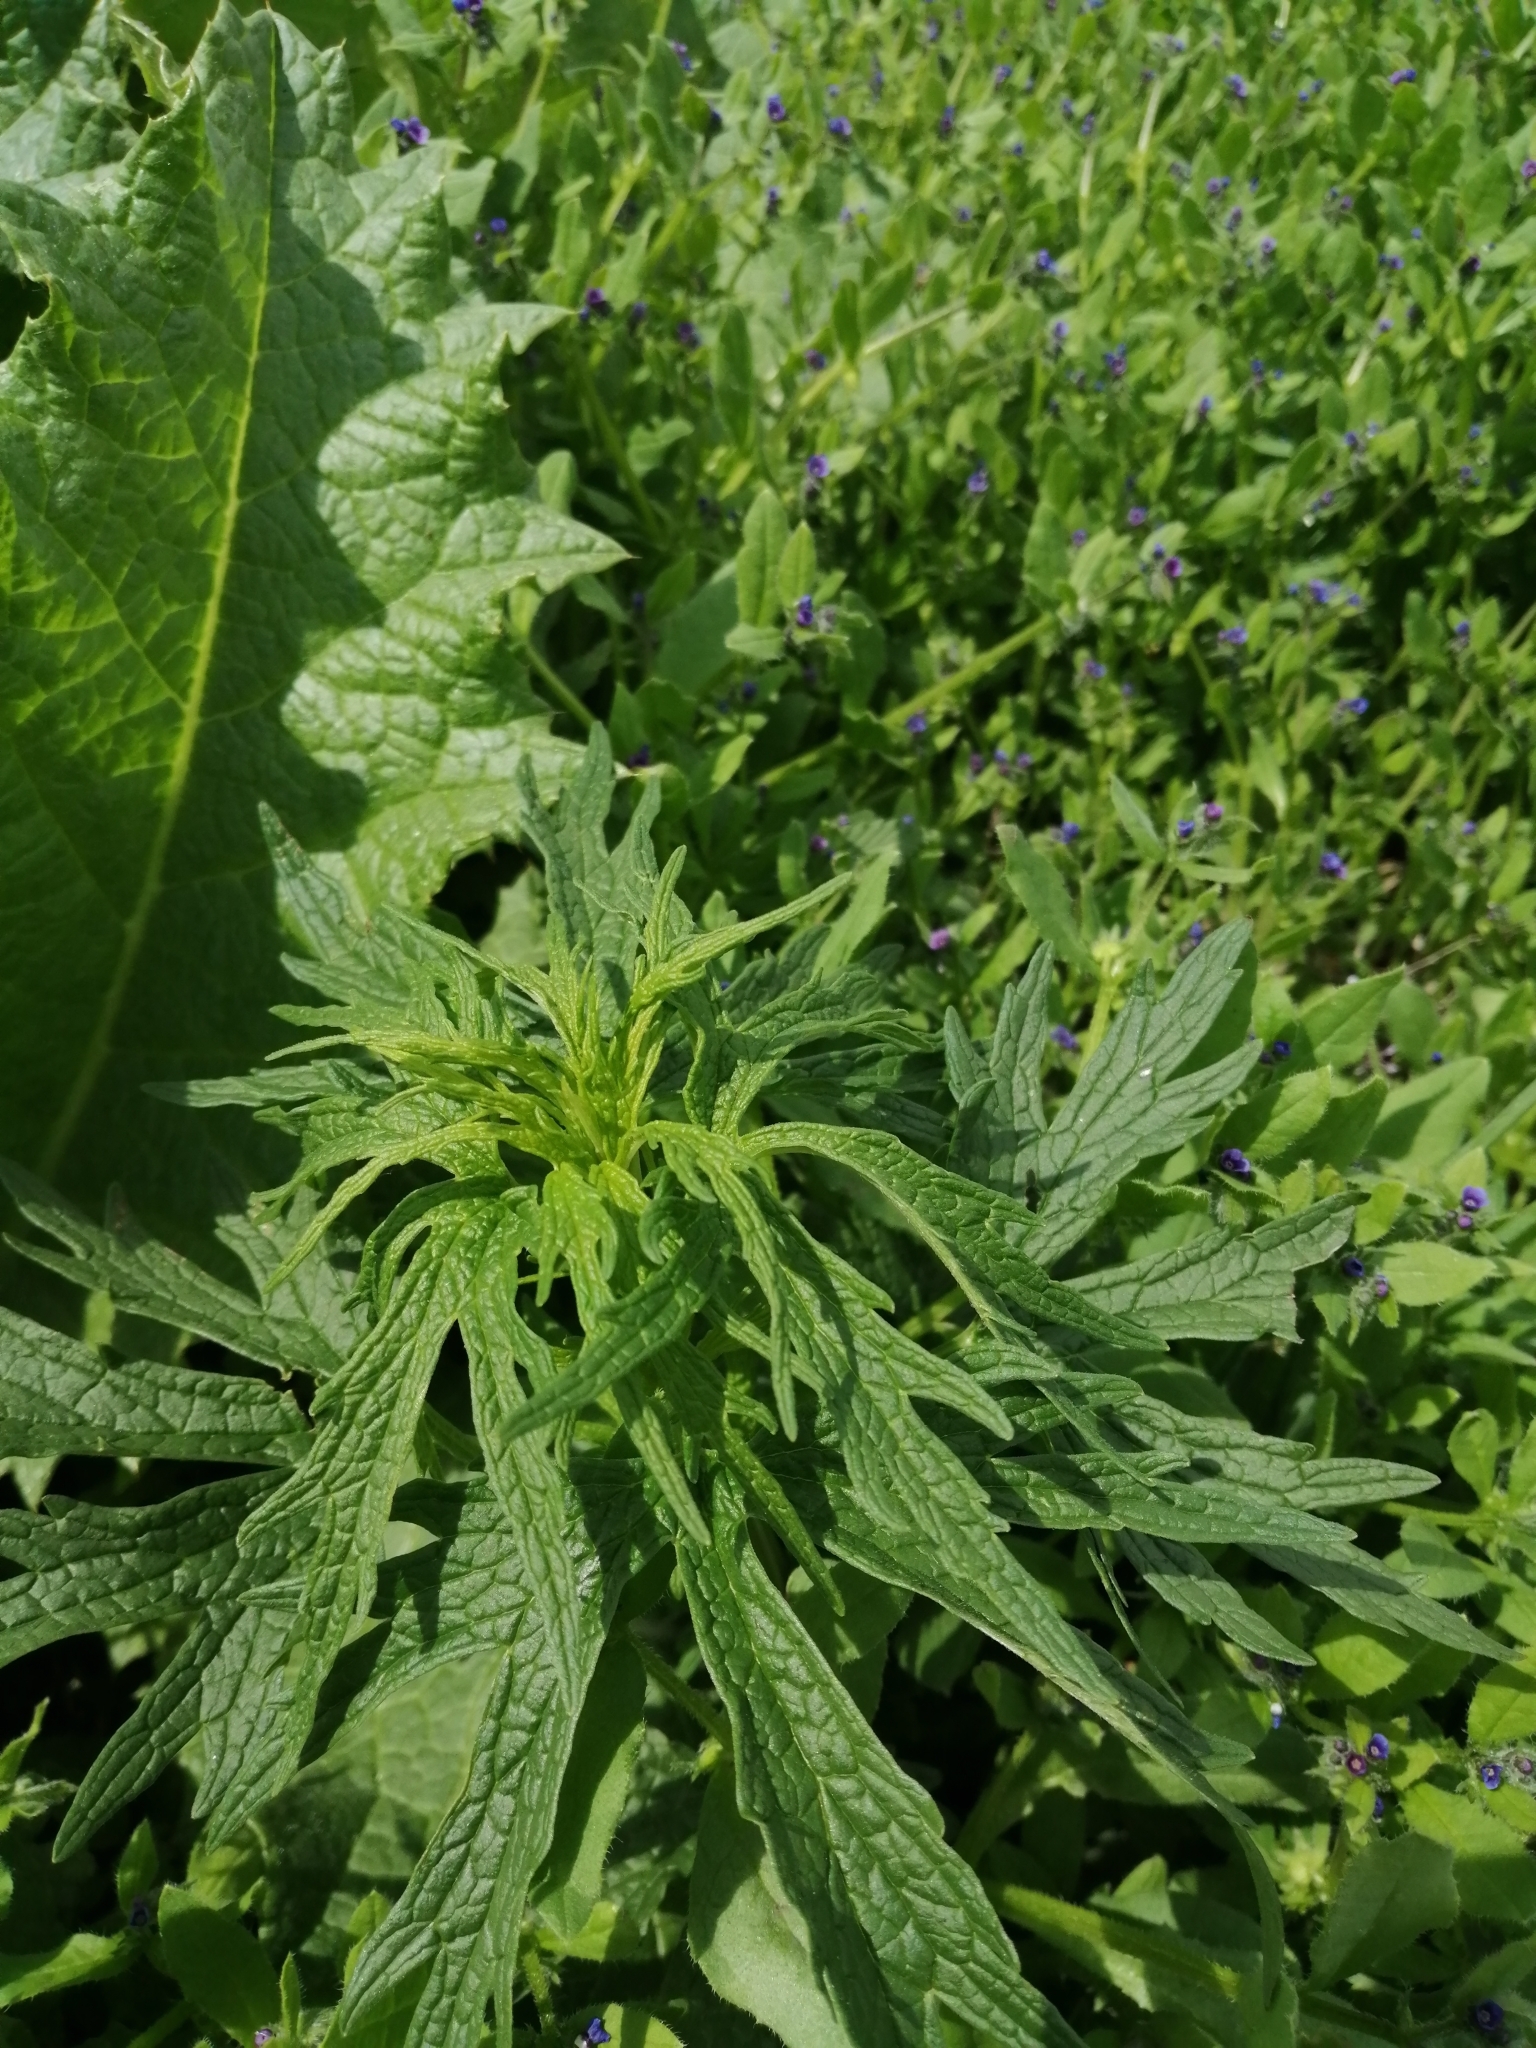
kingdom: Plantae
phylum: Tracheophyta
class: Magnoliopsida
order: Lamiales
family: Lamiaceae
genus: Leonurus
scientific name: Leonurus quinquelobatus
